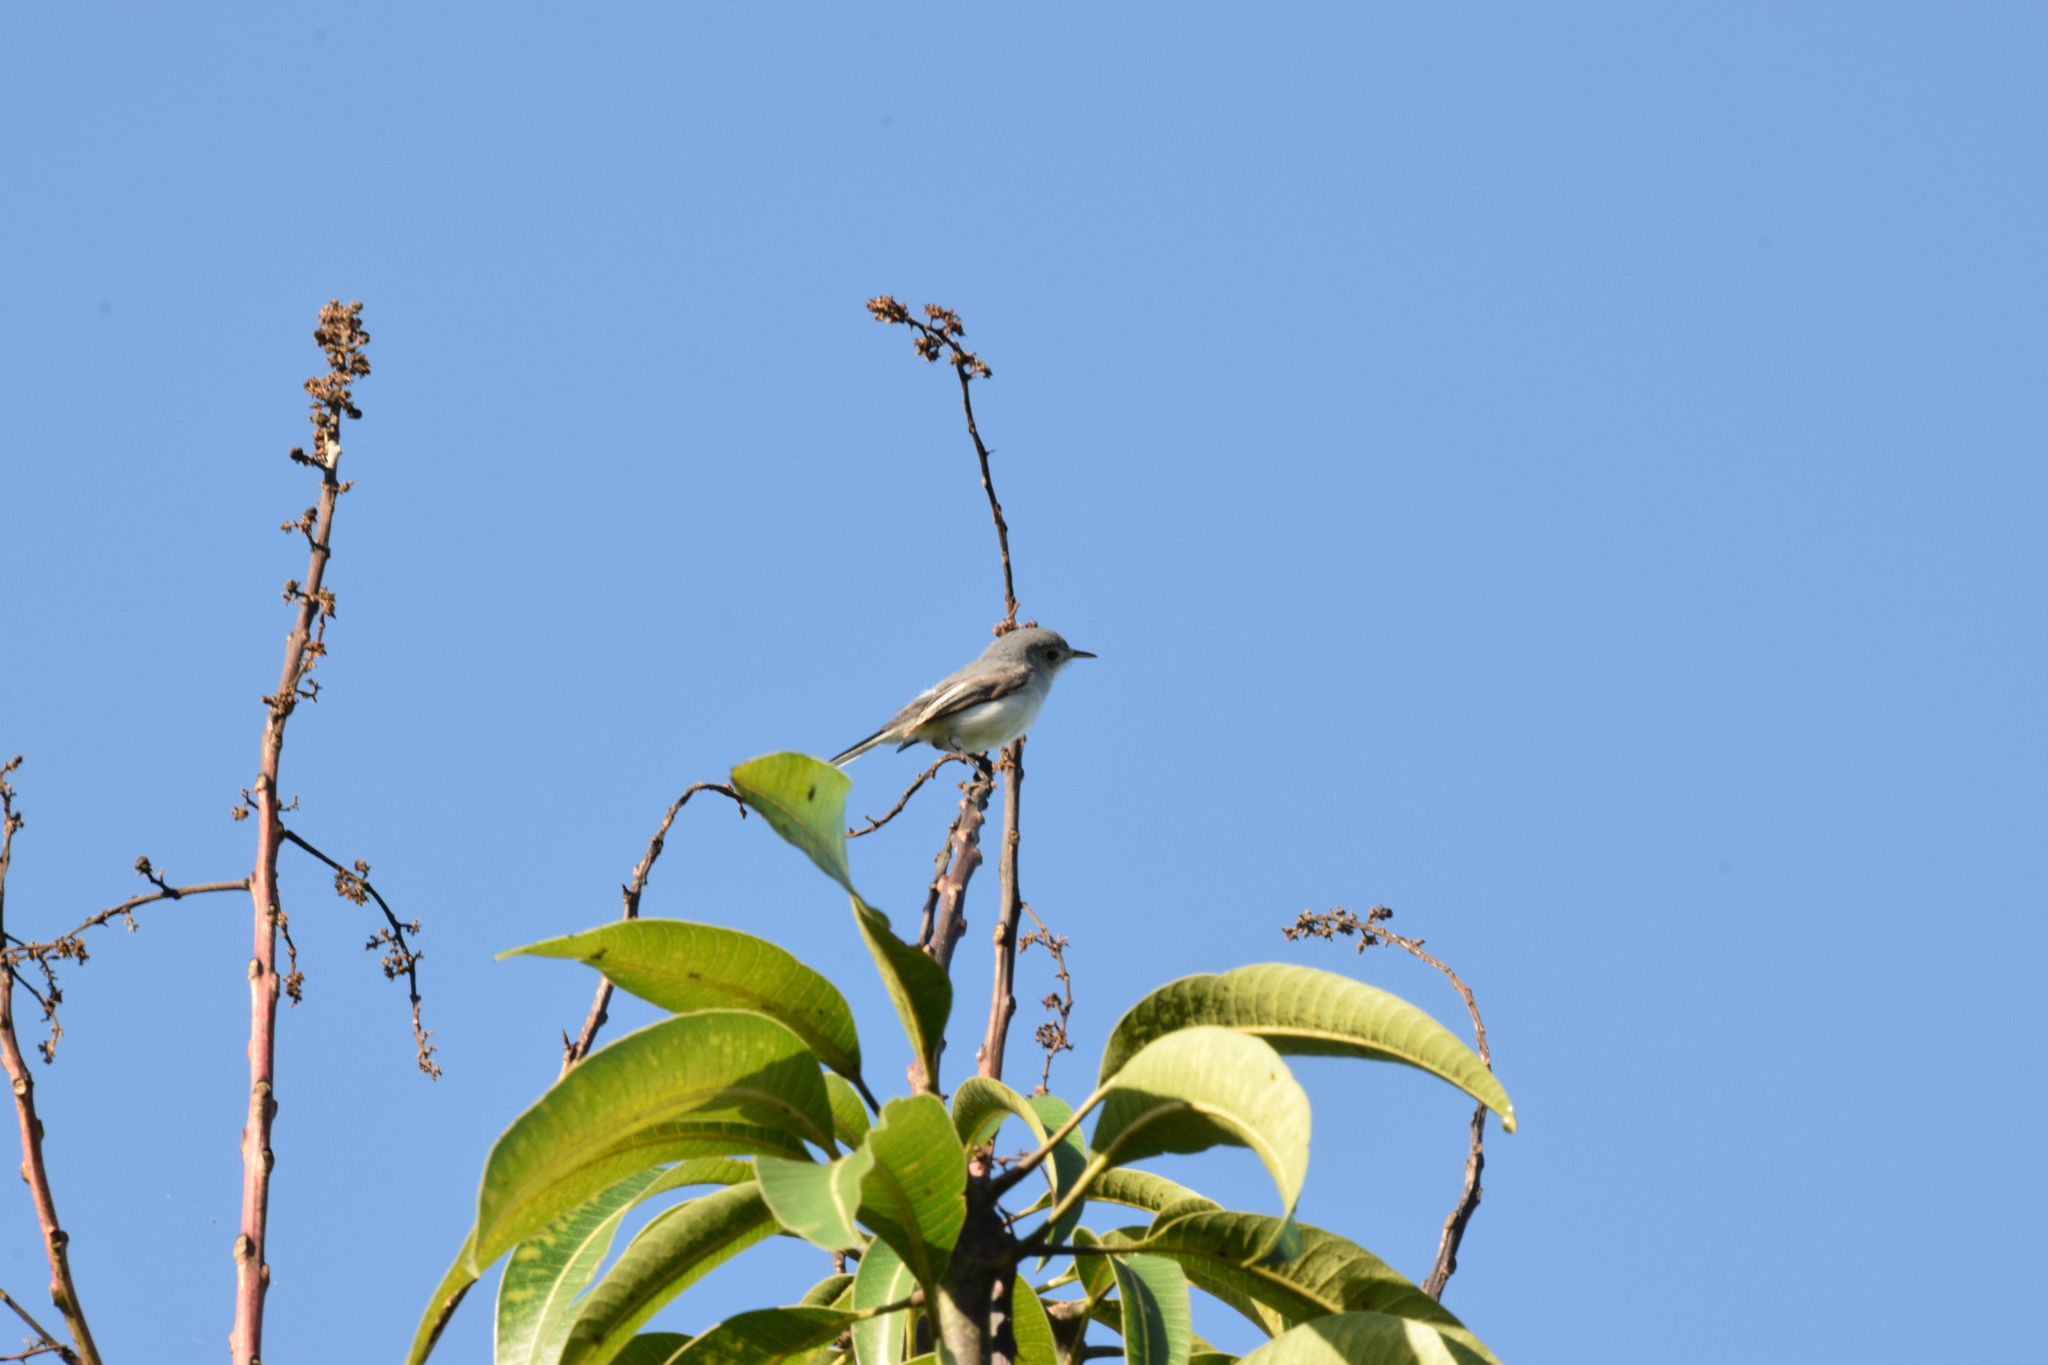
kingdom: Animalia
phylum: Chordata
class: Aves
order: Passeriformes
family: Polioptilidae
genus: Polioptila
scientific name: Polioptila caerulea
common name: Blue-gray gnatcatcher
